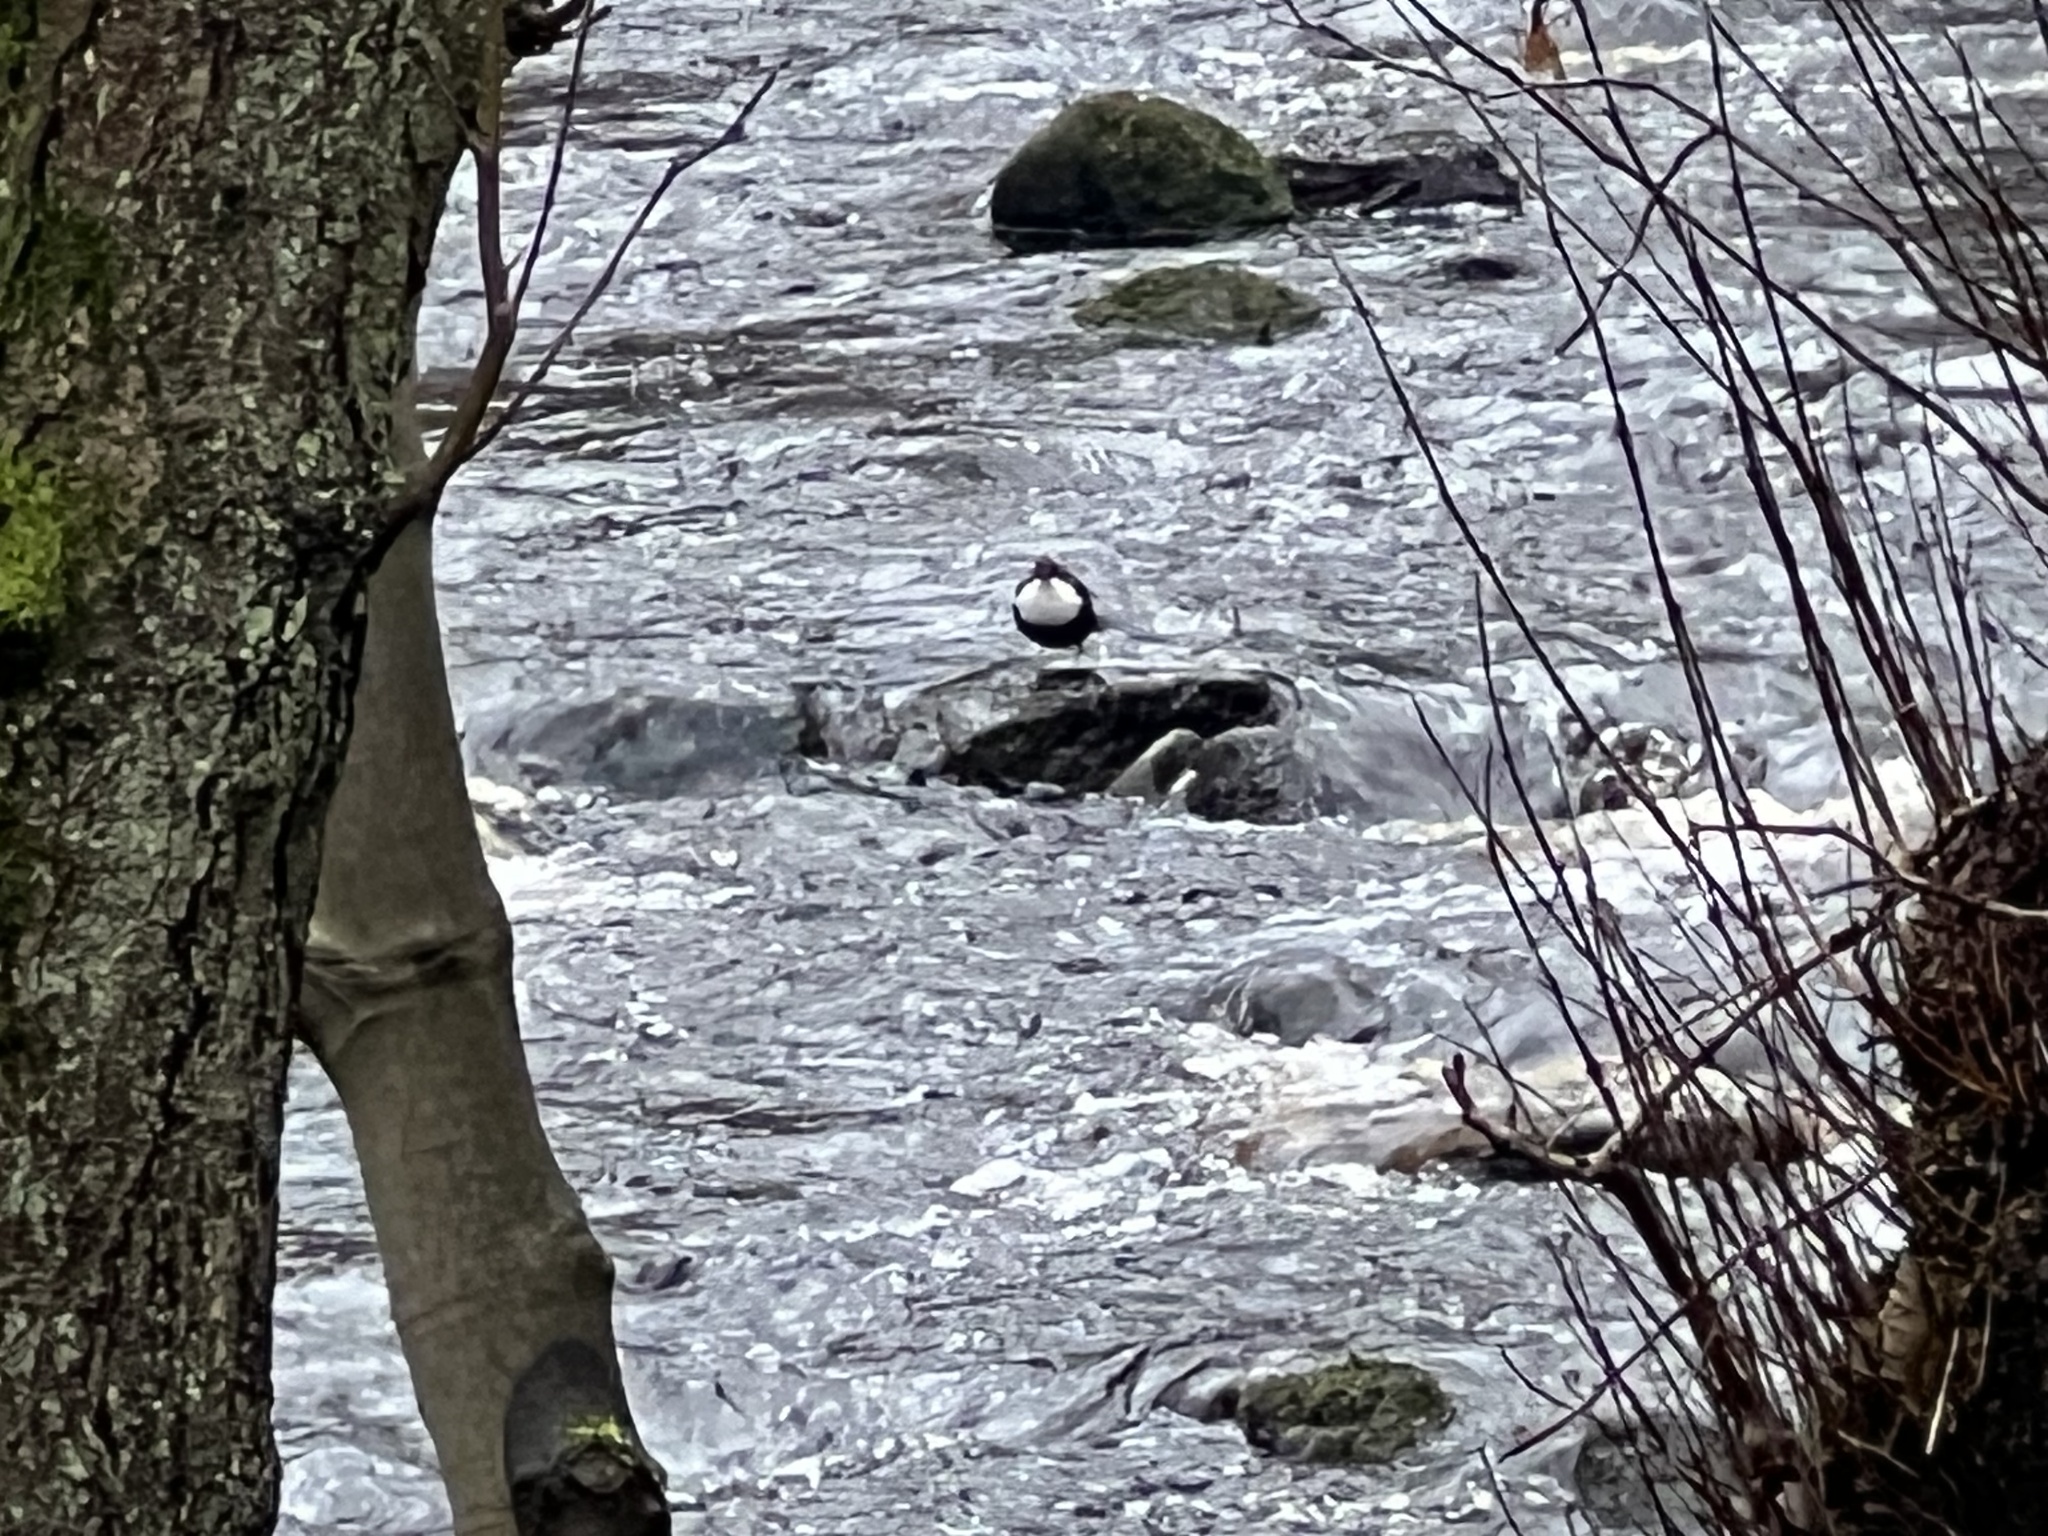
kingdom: Animalia
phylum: Chordata
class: Aves
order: Passeriformes
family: Cinclidae
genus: Cinclus
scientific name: Cinclus cinclus
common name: White-throated dipper
